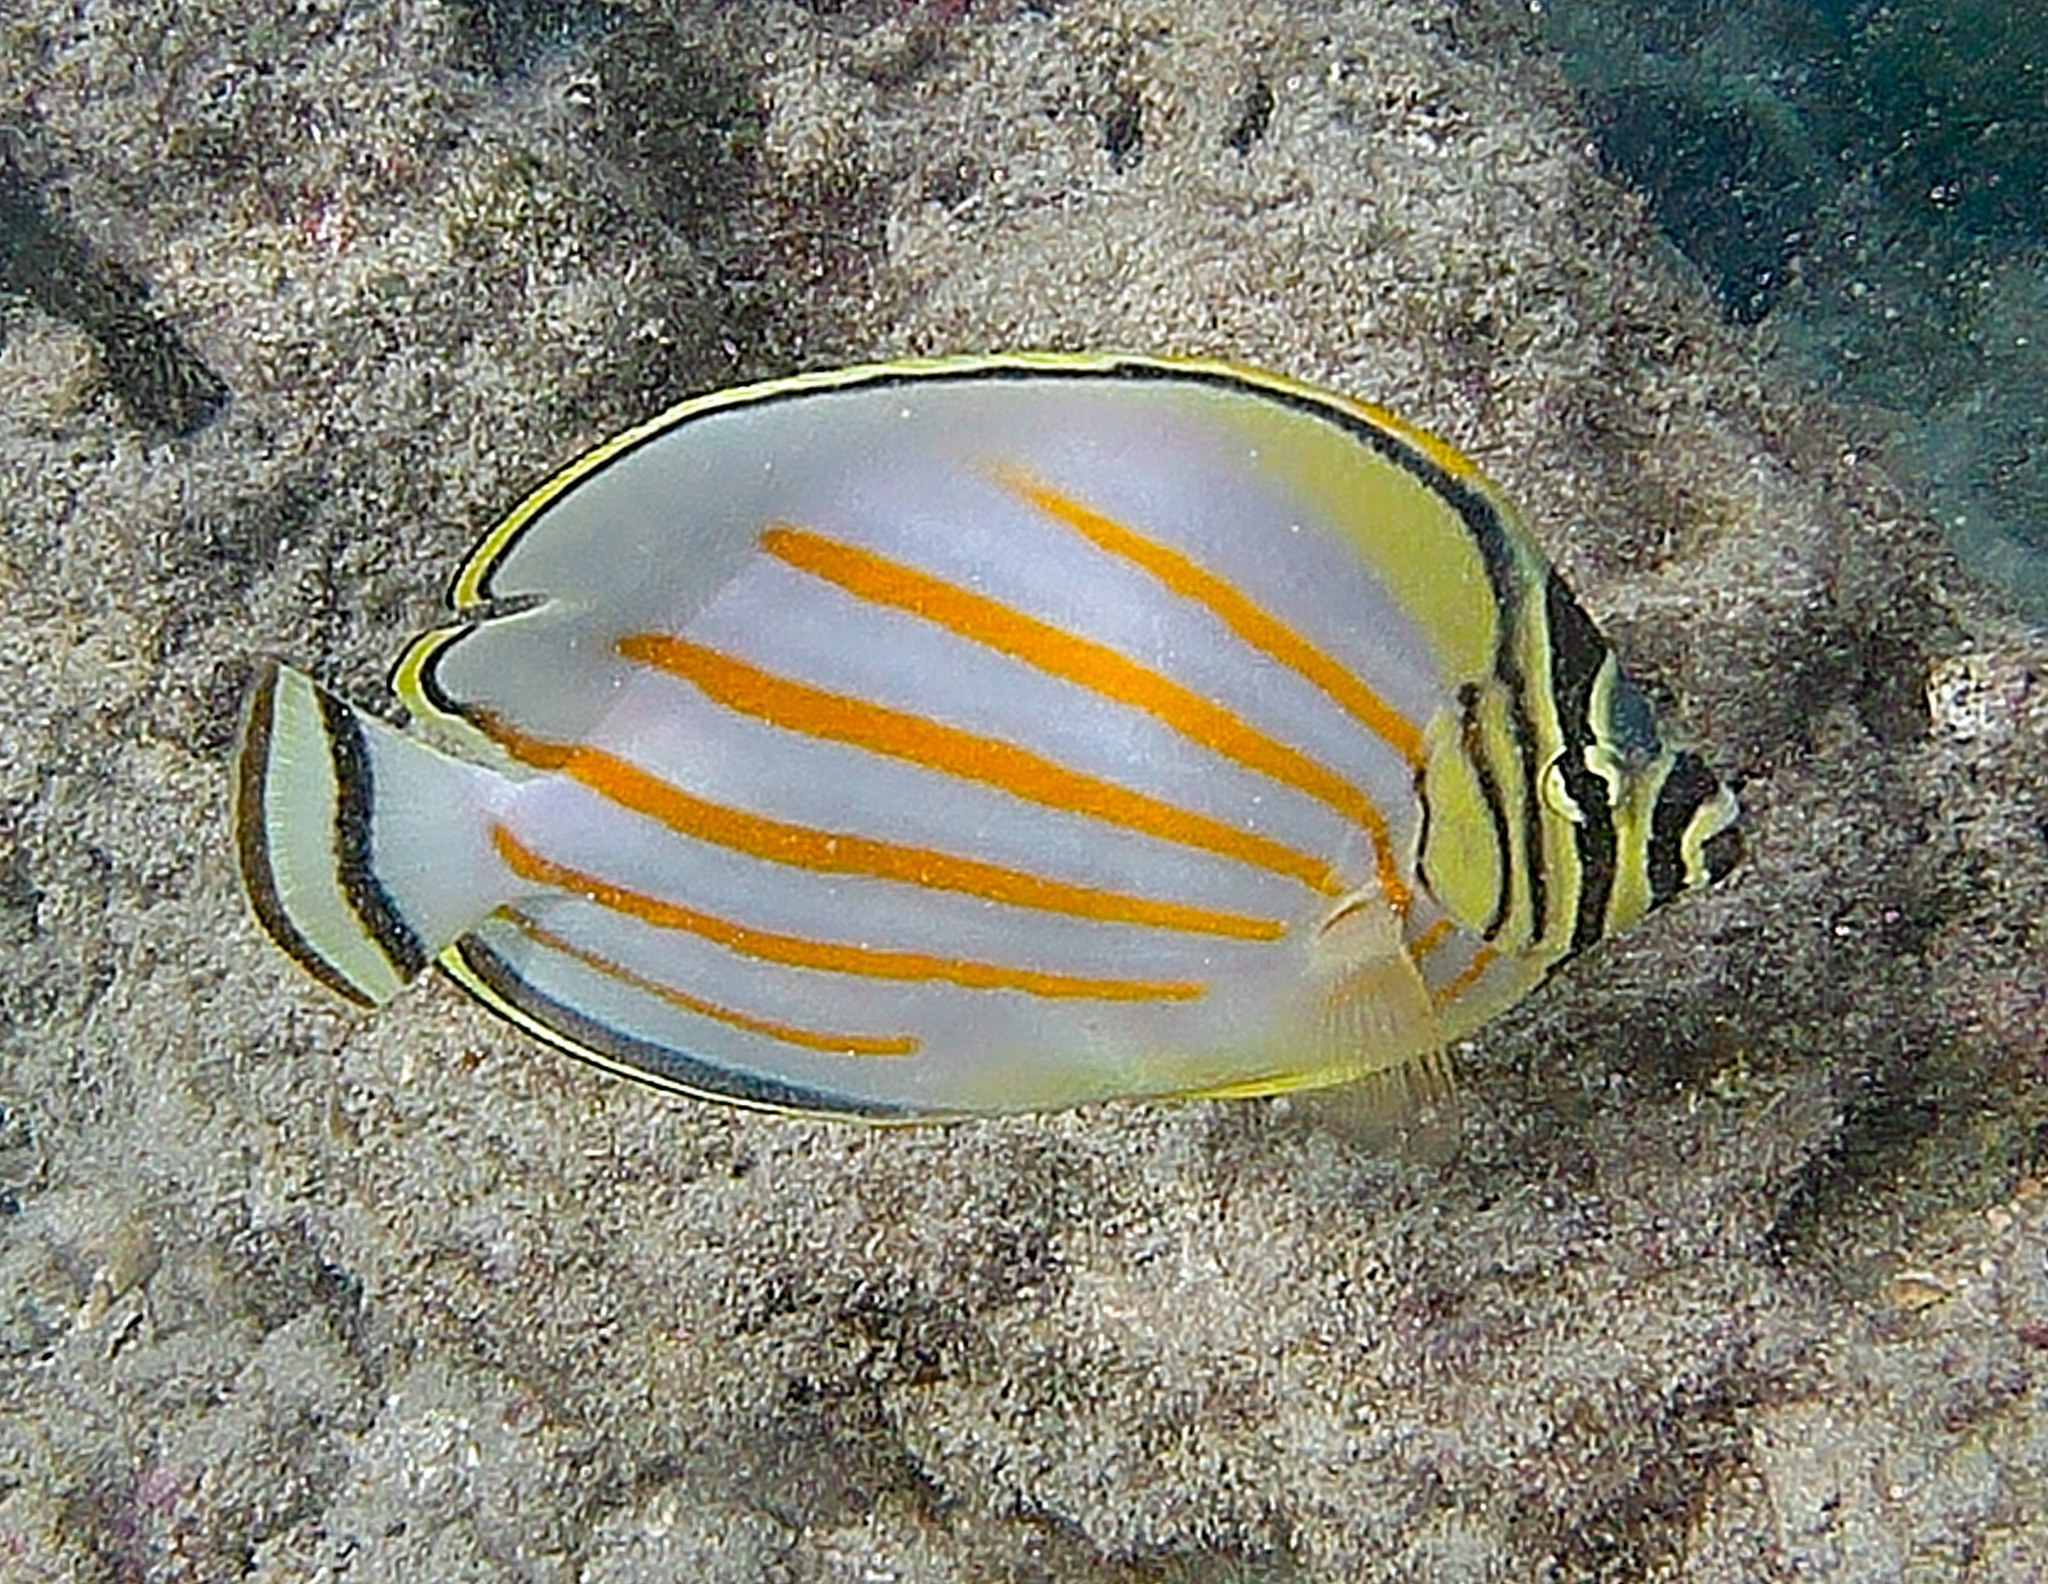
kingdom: Animalia
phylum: Chordata
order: Perciformes
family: Chaetodontidae
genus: Chaetodon
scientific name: Chaetodon ornatissimus
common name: Ornate butterflyfish
